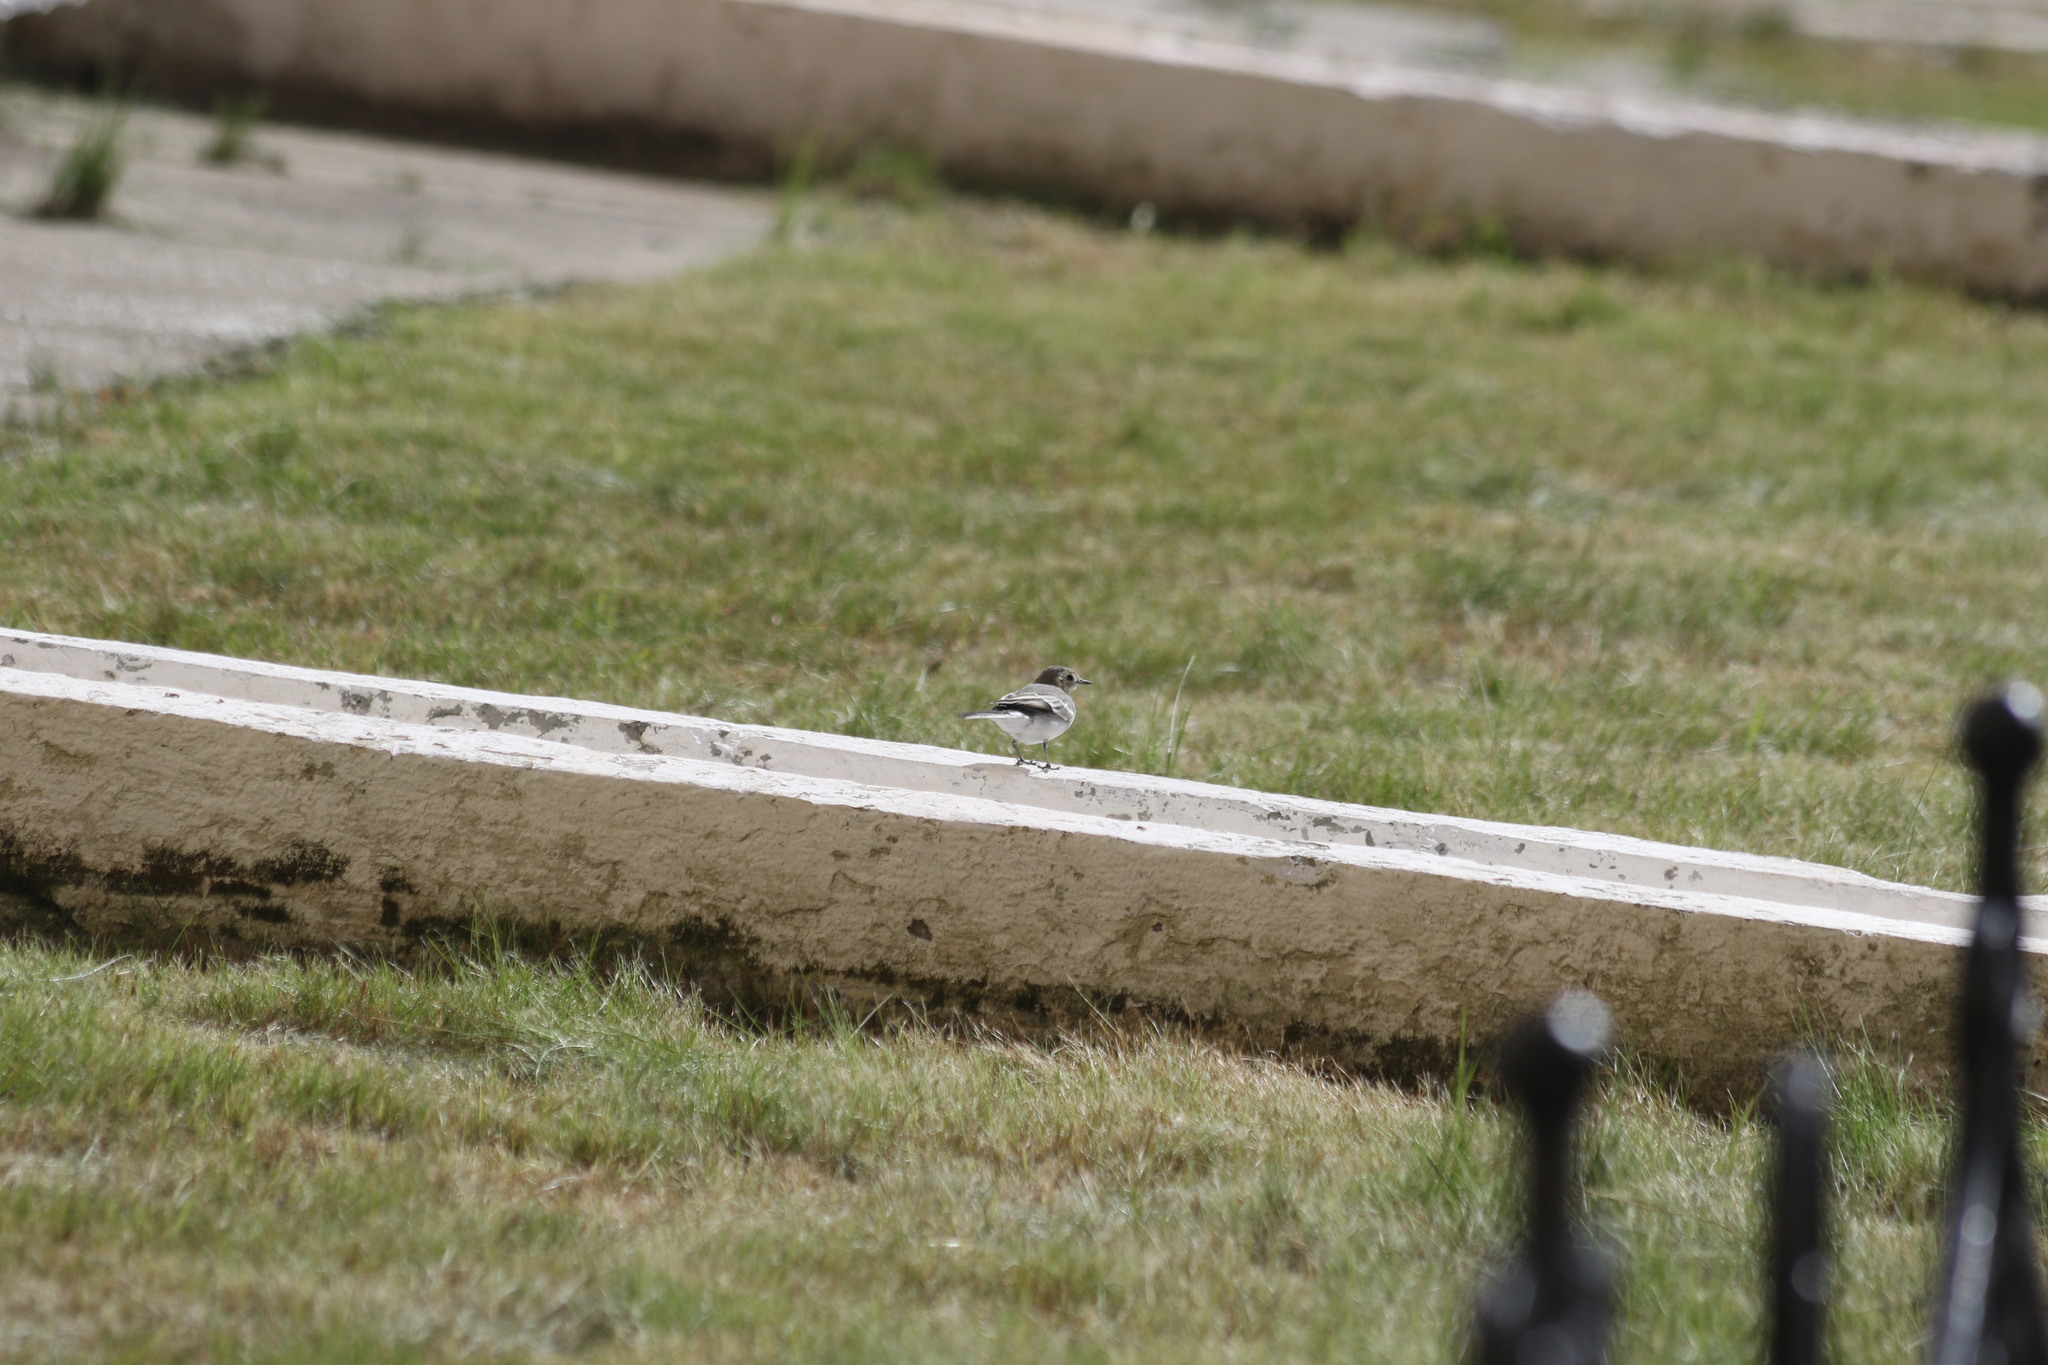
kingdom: Animalia
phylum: Chordata
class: Aves
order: Passeriformes
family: Motacillidae
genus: Motacilla
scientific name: Motacilla alba
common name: White wagtail
